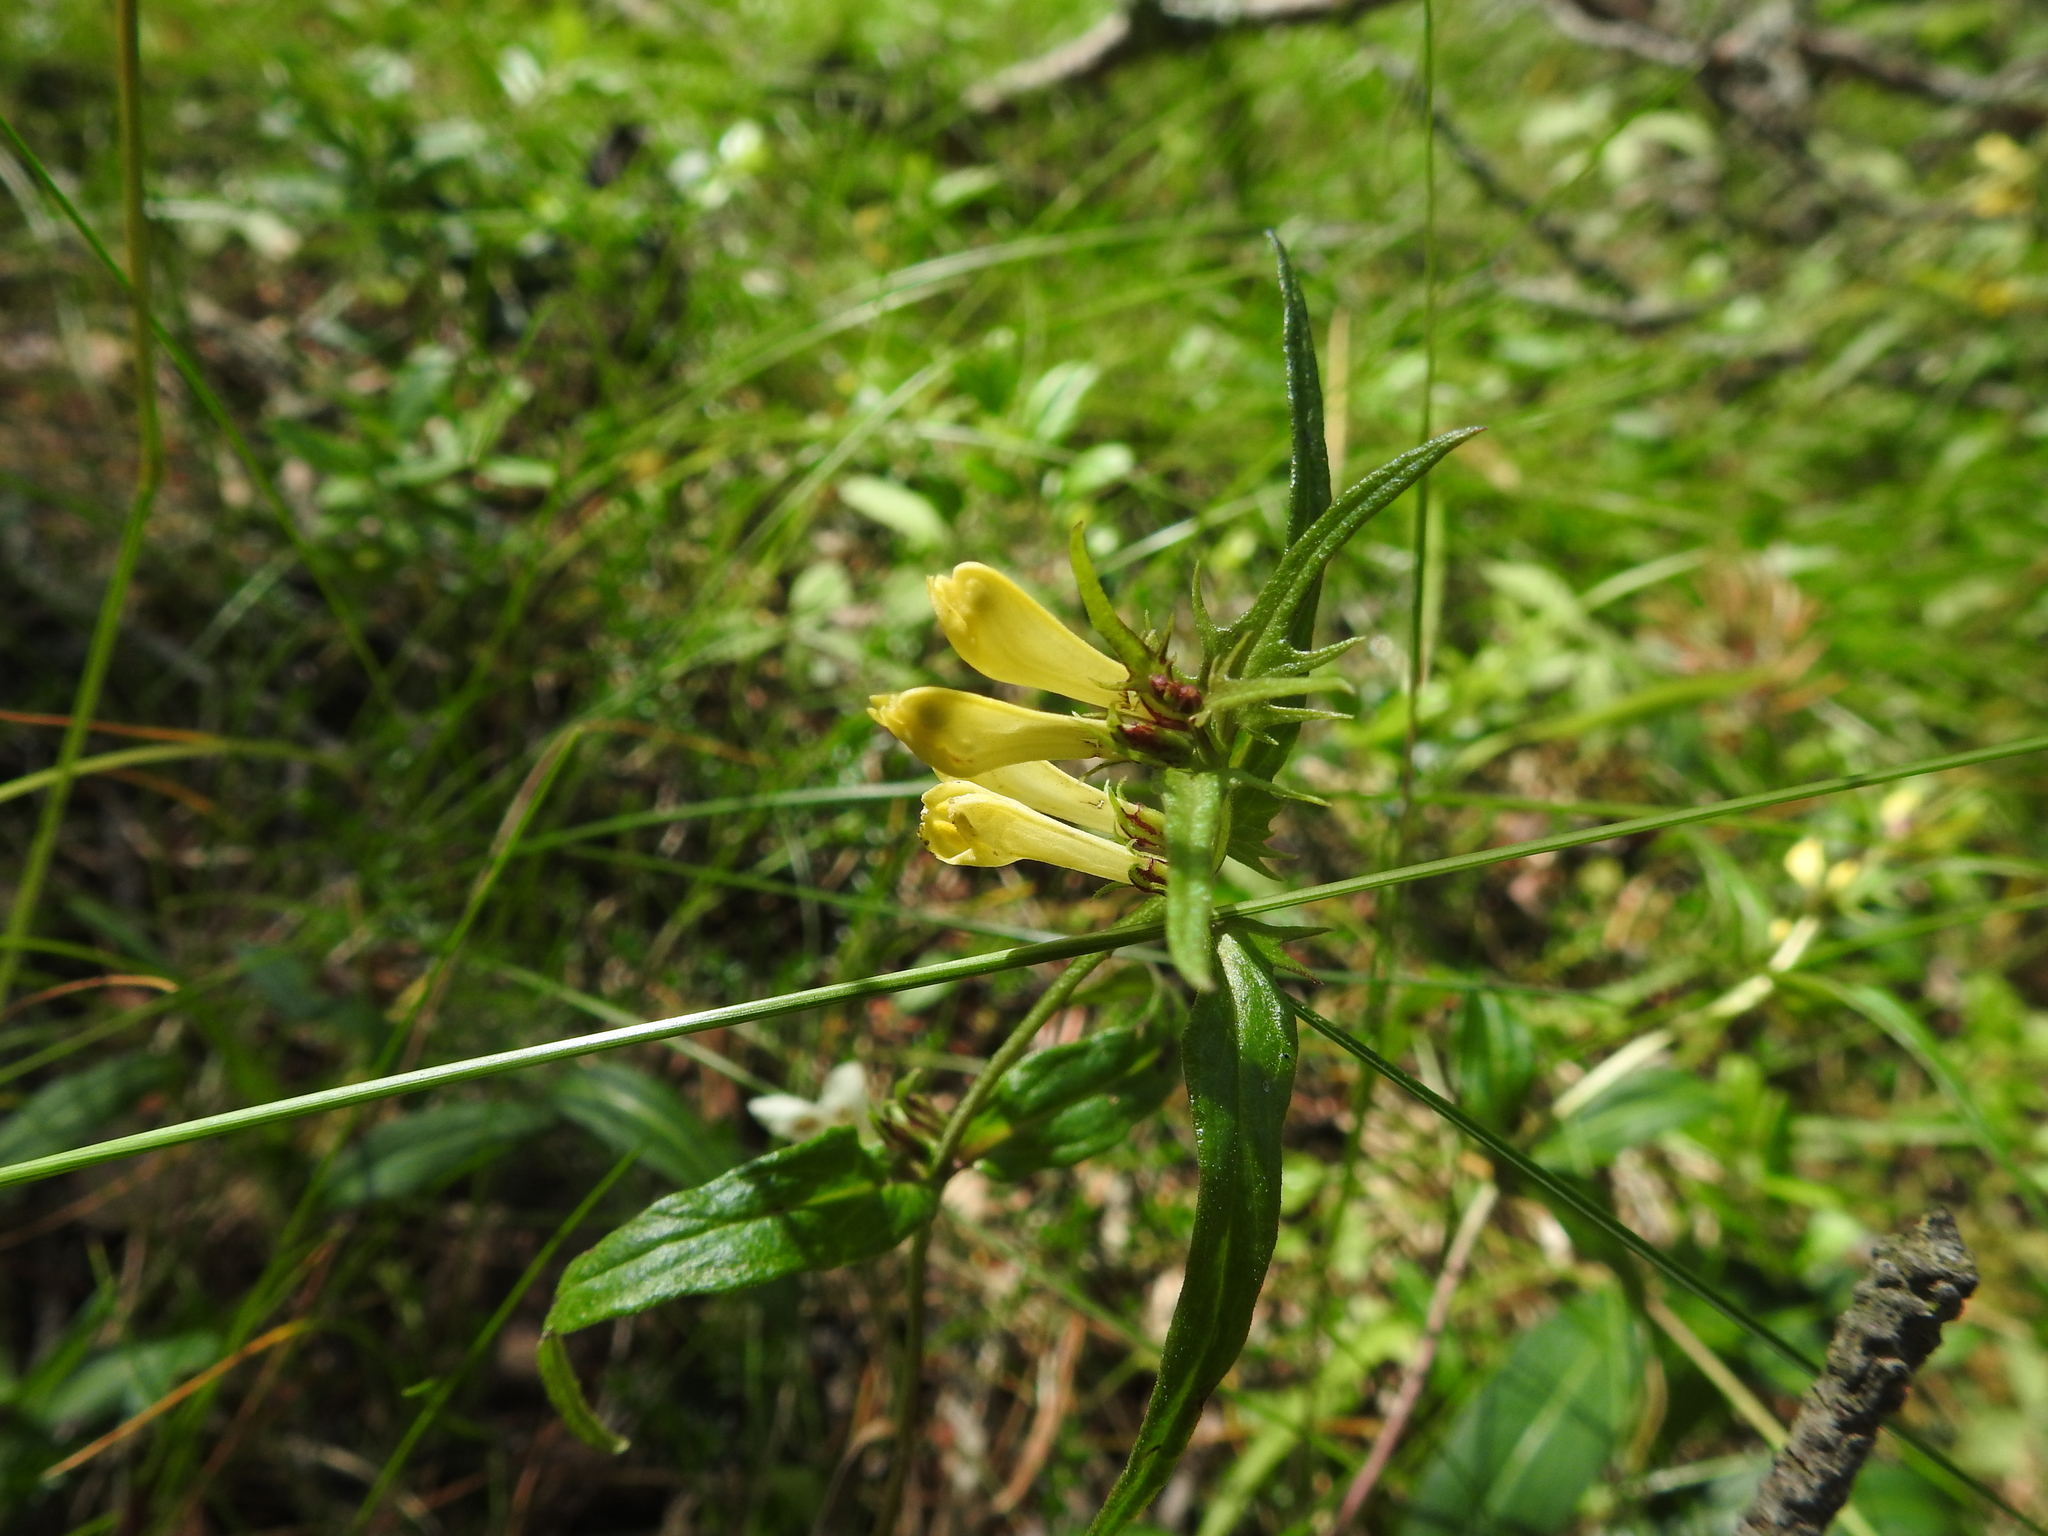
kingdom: Plantae
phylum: Tracheophyta
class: Magnoliopsida
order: Lamiales
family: Orobanchaceae
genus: Melampyrum
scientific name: Melampyrum pratense
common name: Common cow-wheat
